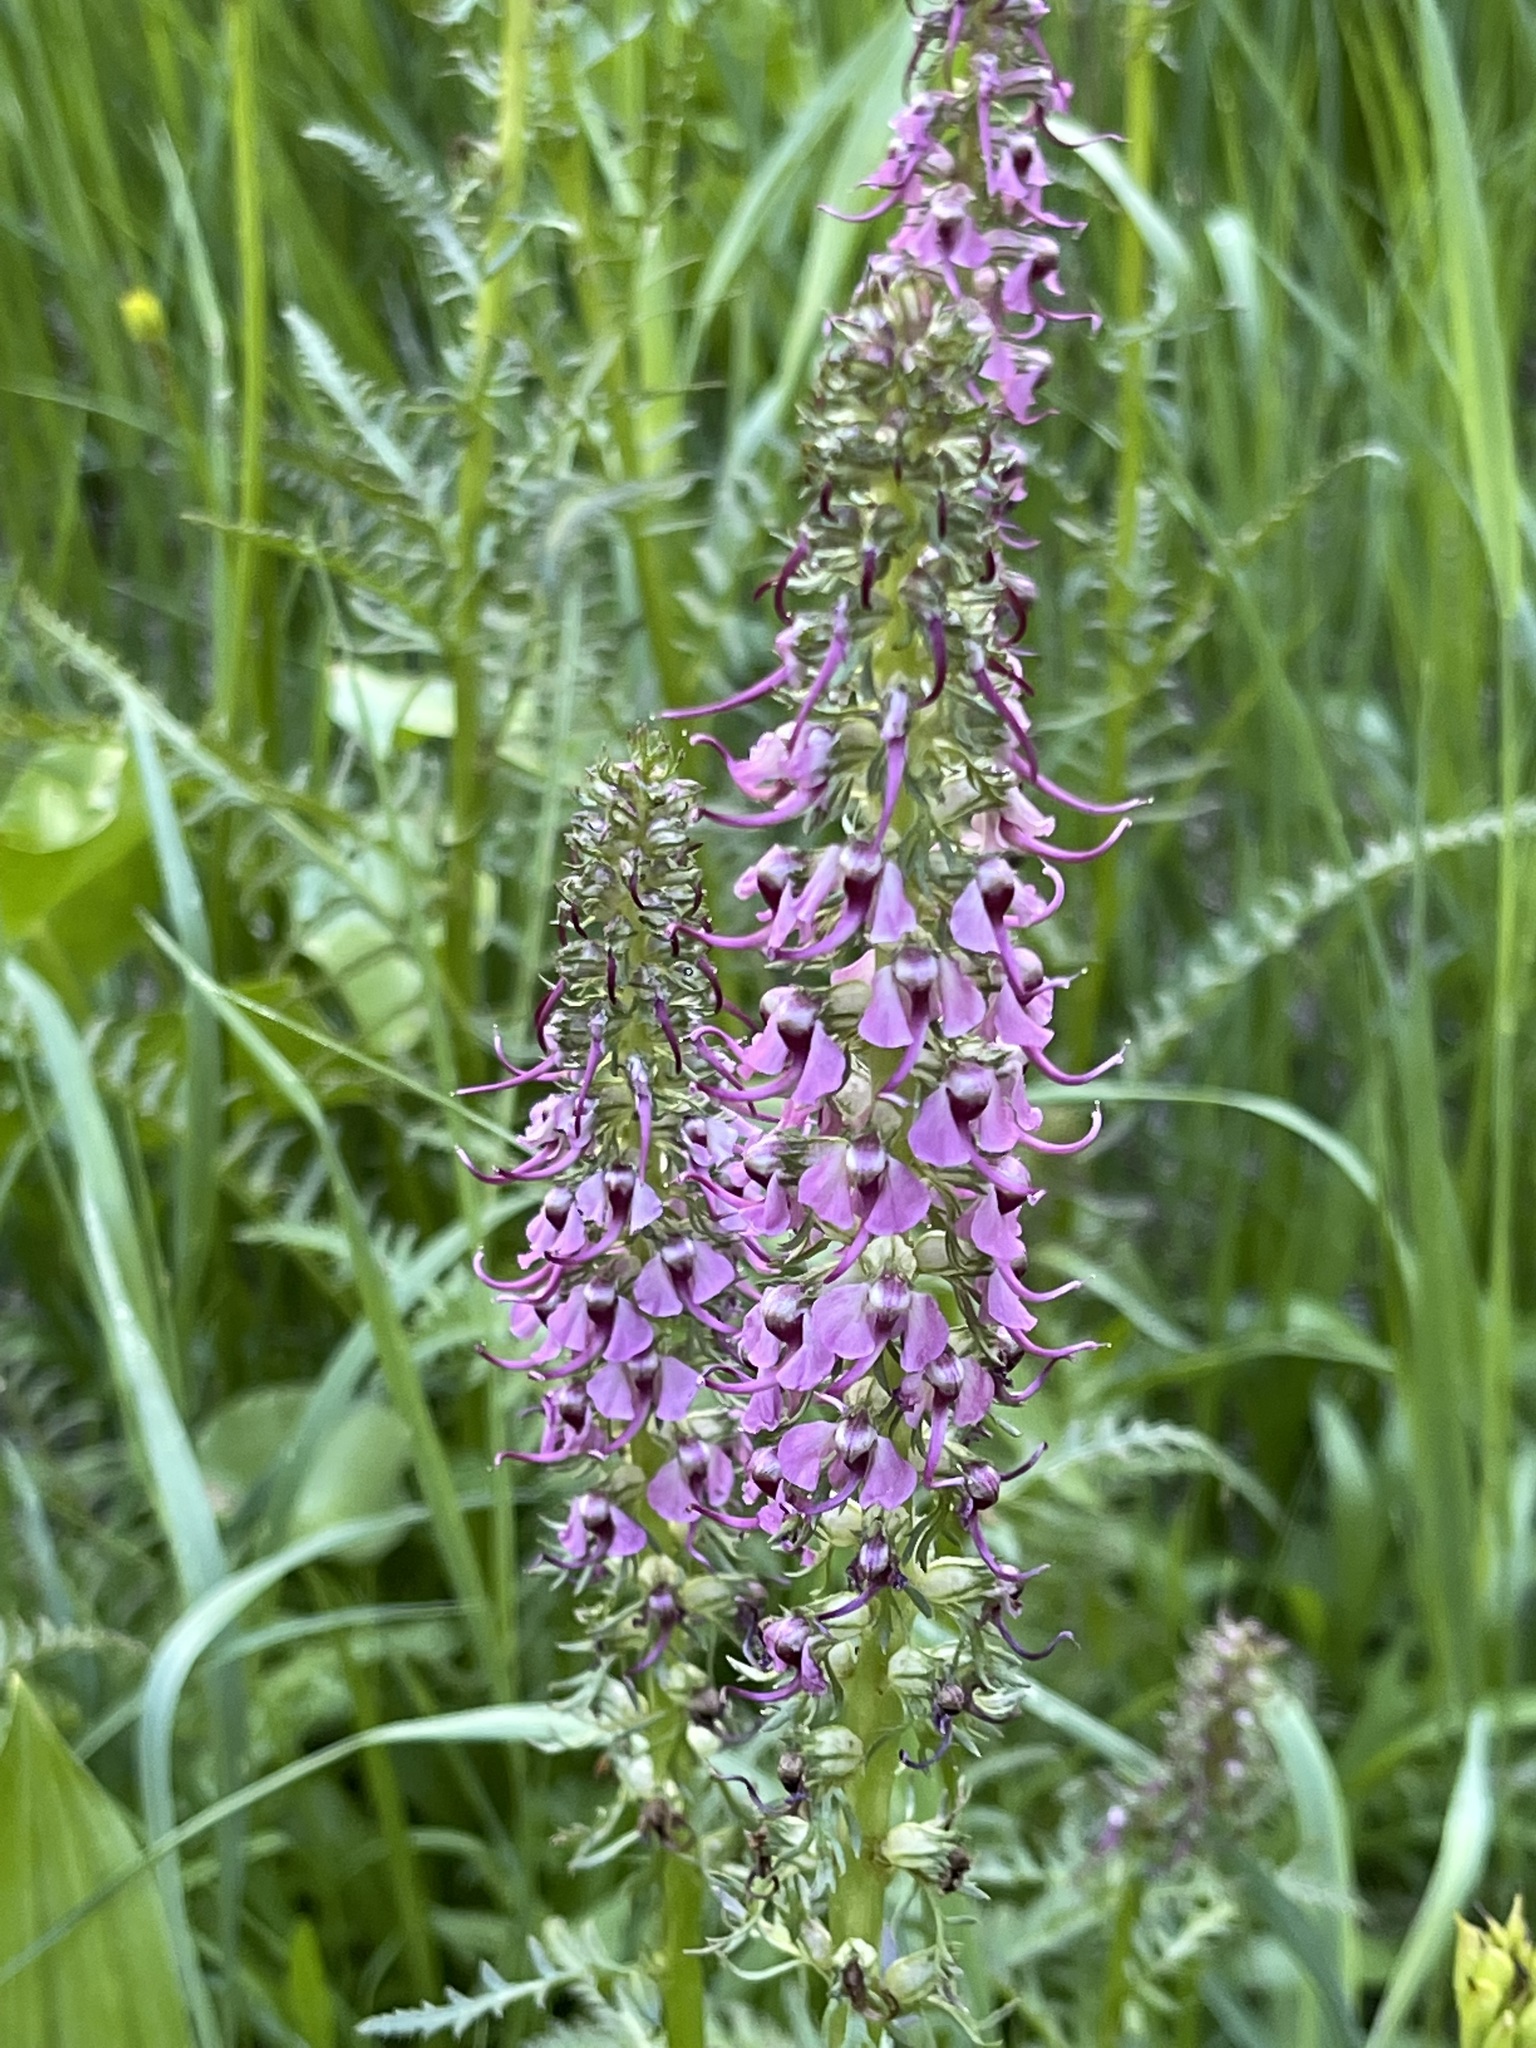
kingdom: Plantae
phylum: Tracheophyta
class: Magnoliopsida
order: Lamiales
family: Orobanchaceae
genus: Pedicularis
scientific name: Pedicularis groenlandica
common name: Elephant's-head
